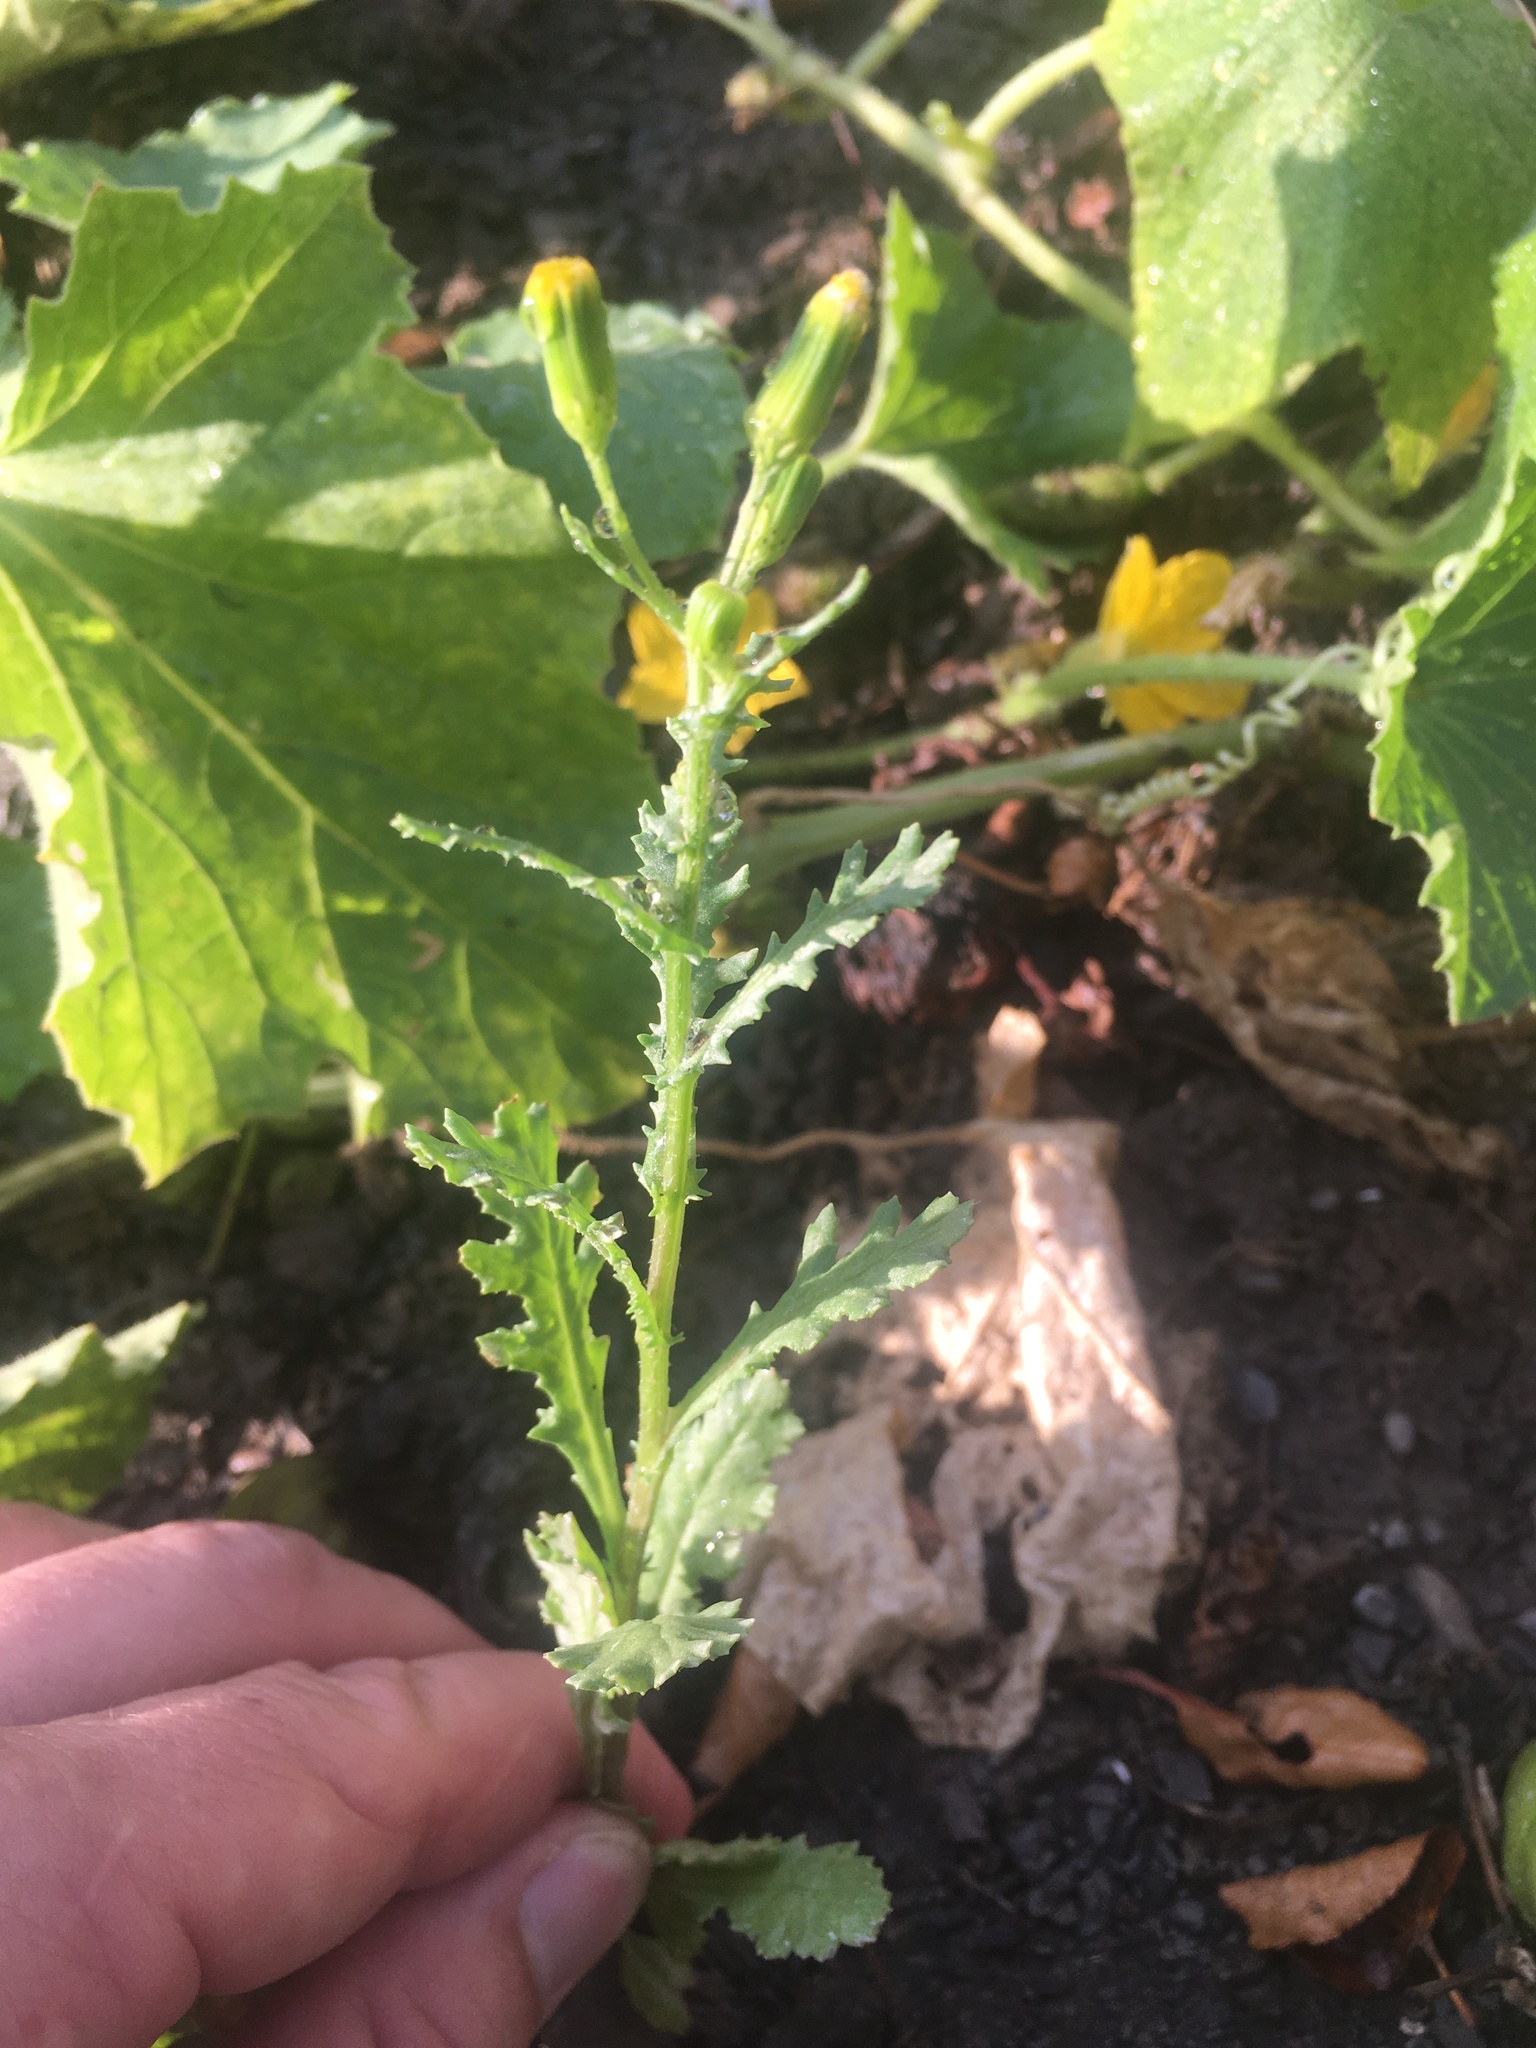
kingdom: Plantae
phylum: Tracheophyta
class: Magnoliopsida
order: Asterales
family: Asteraceae
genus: Senecio
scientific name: Senecio vulgaris
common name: Old-man-in-the-spring
